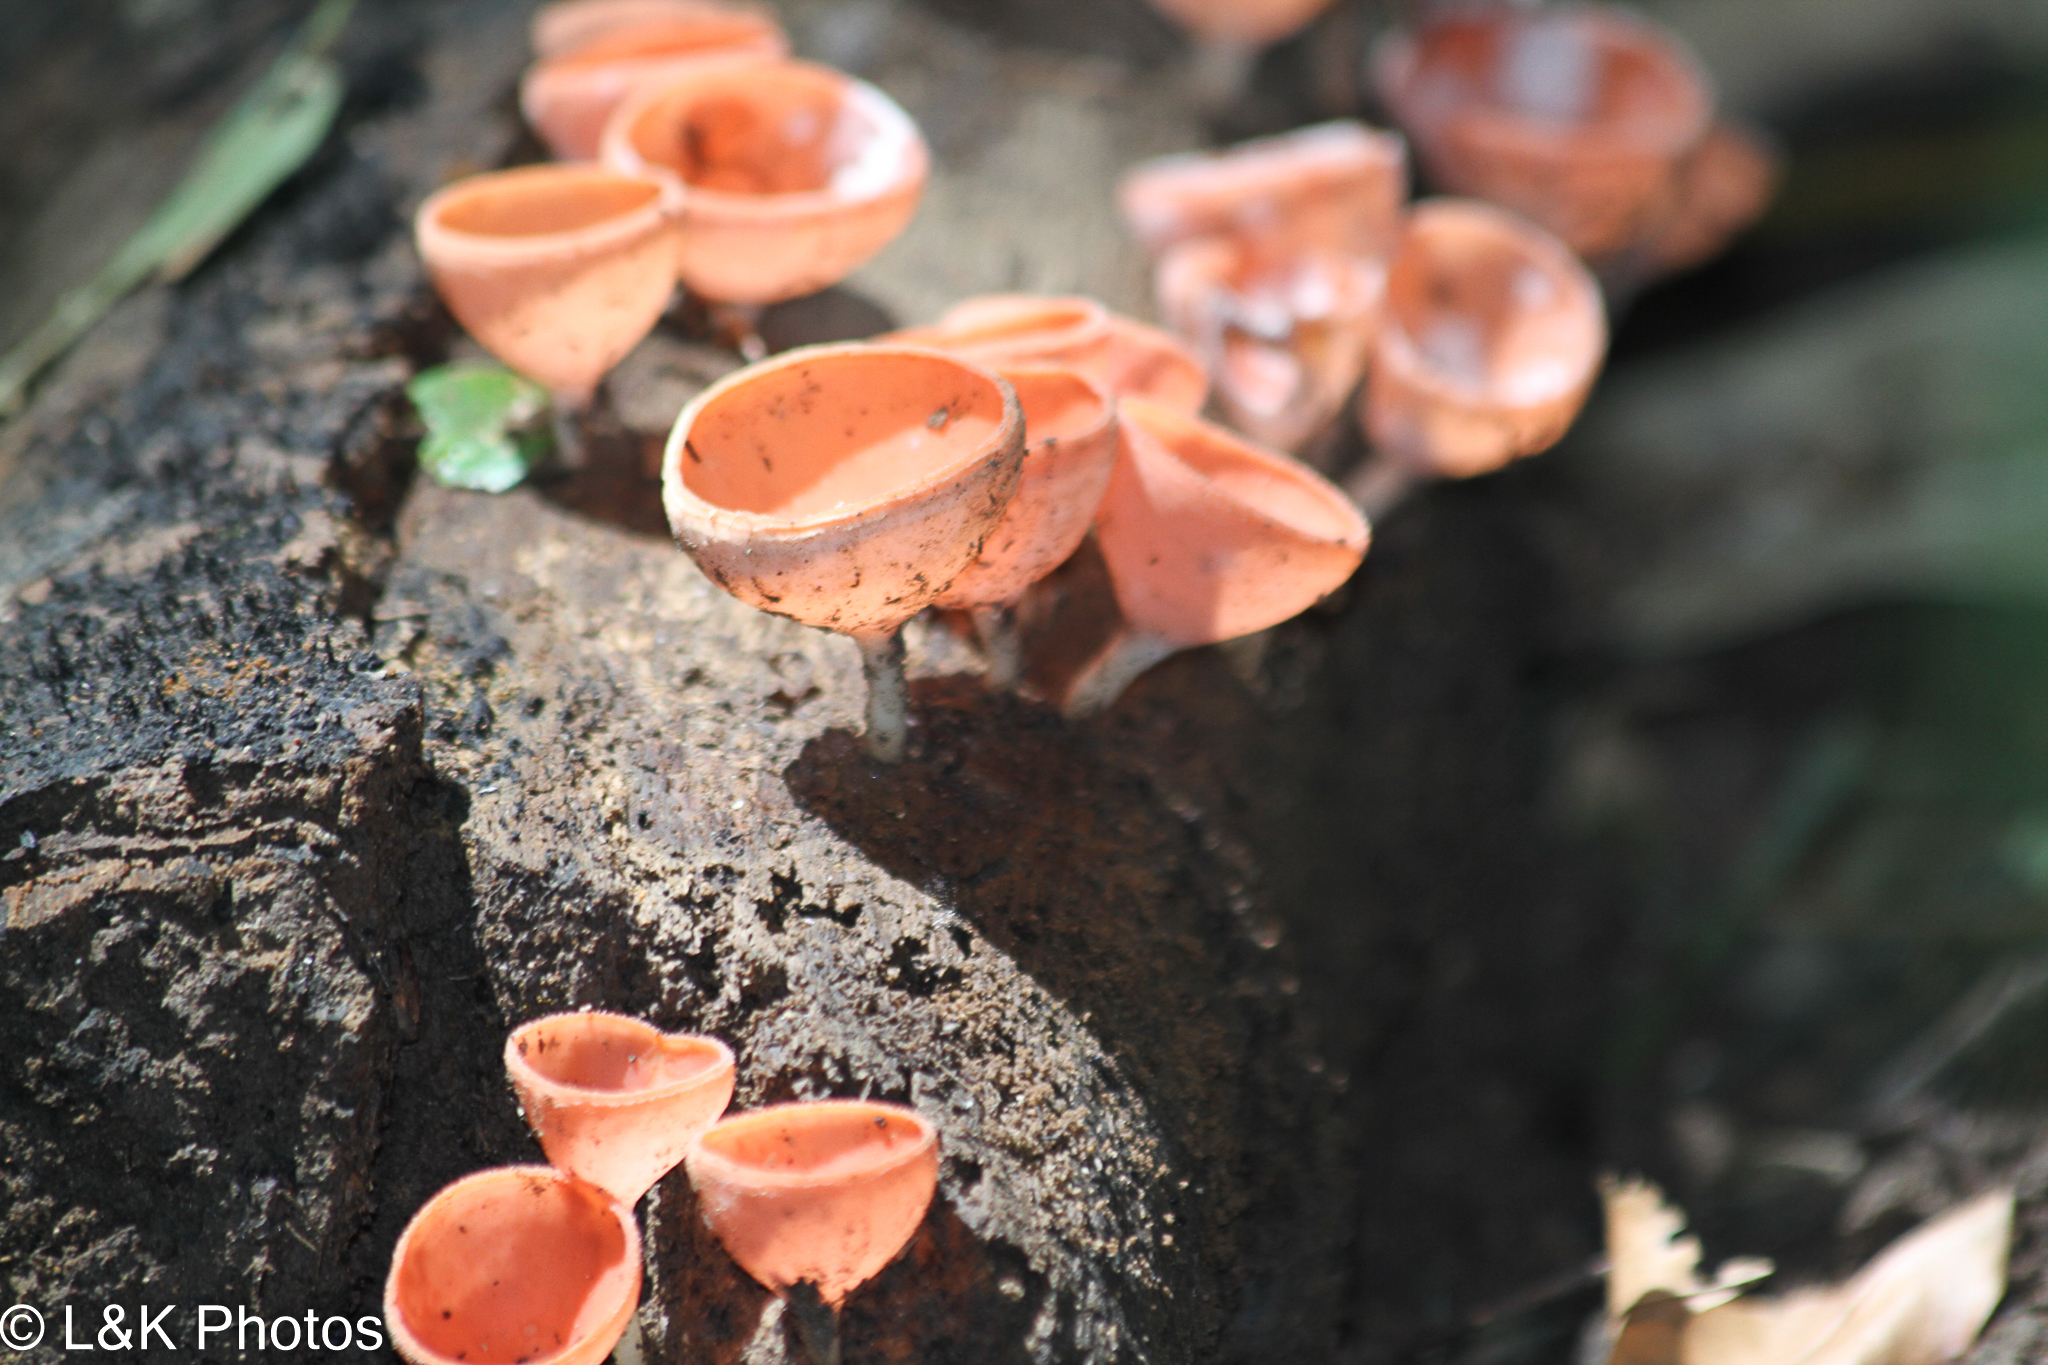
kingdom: Fungi
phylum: Ascomycota
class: Pezizomycetes
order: Pezizales
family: Sarcoscyphaceae
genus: Cookeina
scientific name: Cookeina speciosa
